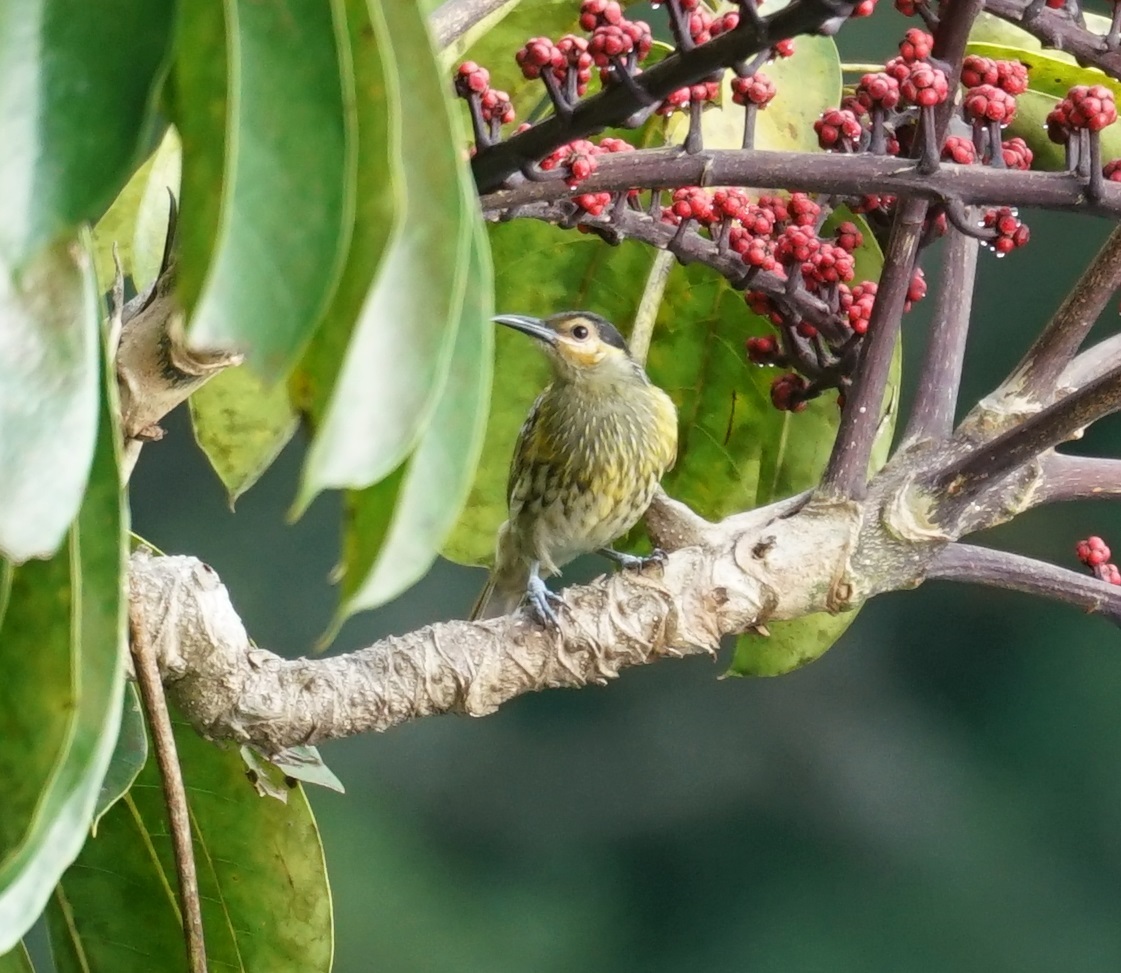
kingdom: Animalia
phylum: Chordata
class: Aves
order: Passeriformes
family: Meliphagidae
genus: Xanthotis
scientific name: Xanthotis macleayanus
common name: Macleay's honeyeater
